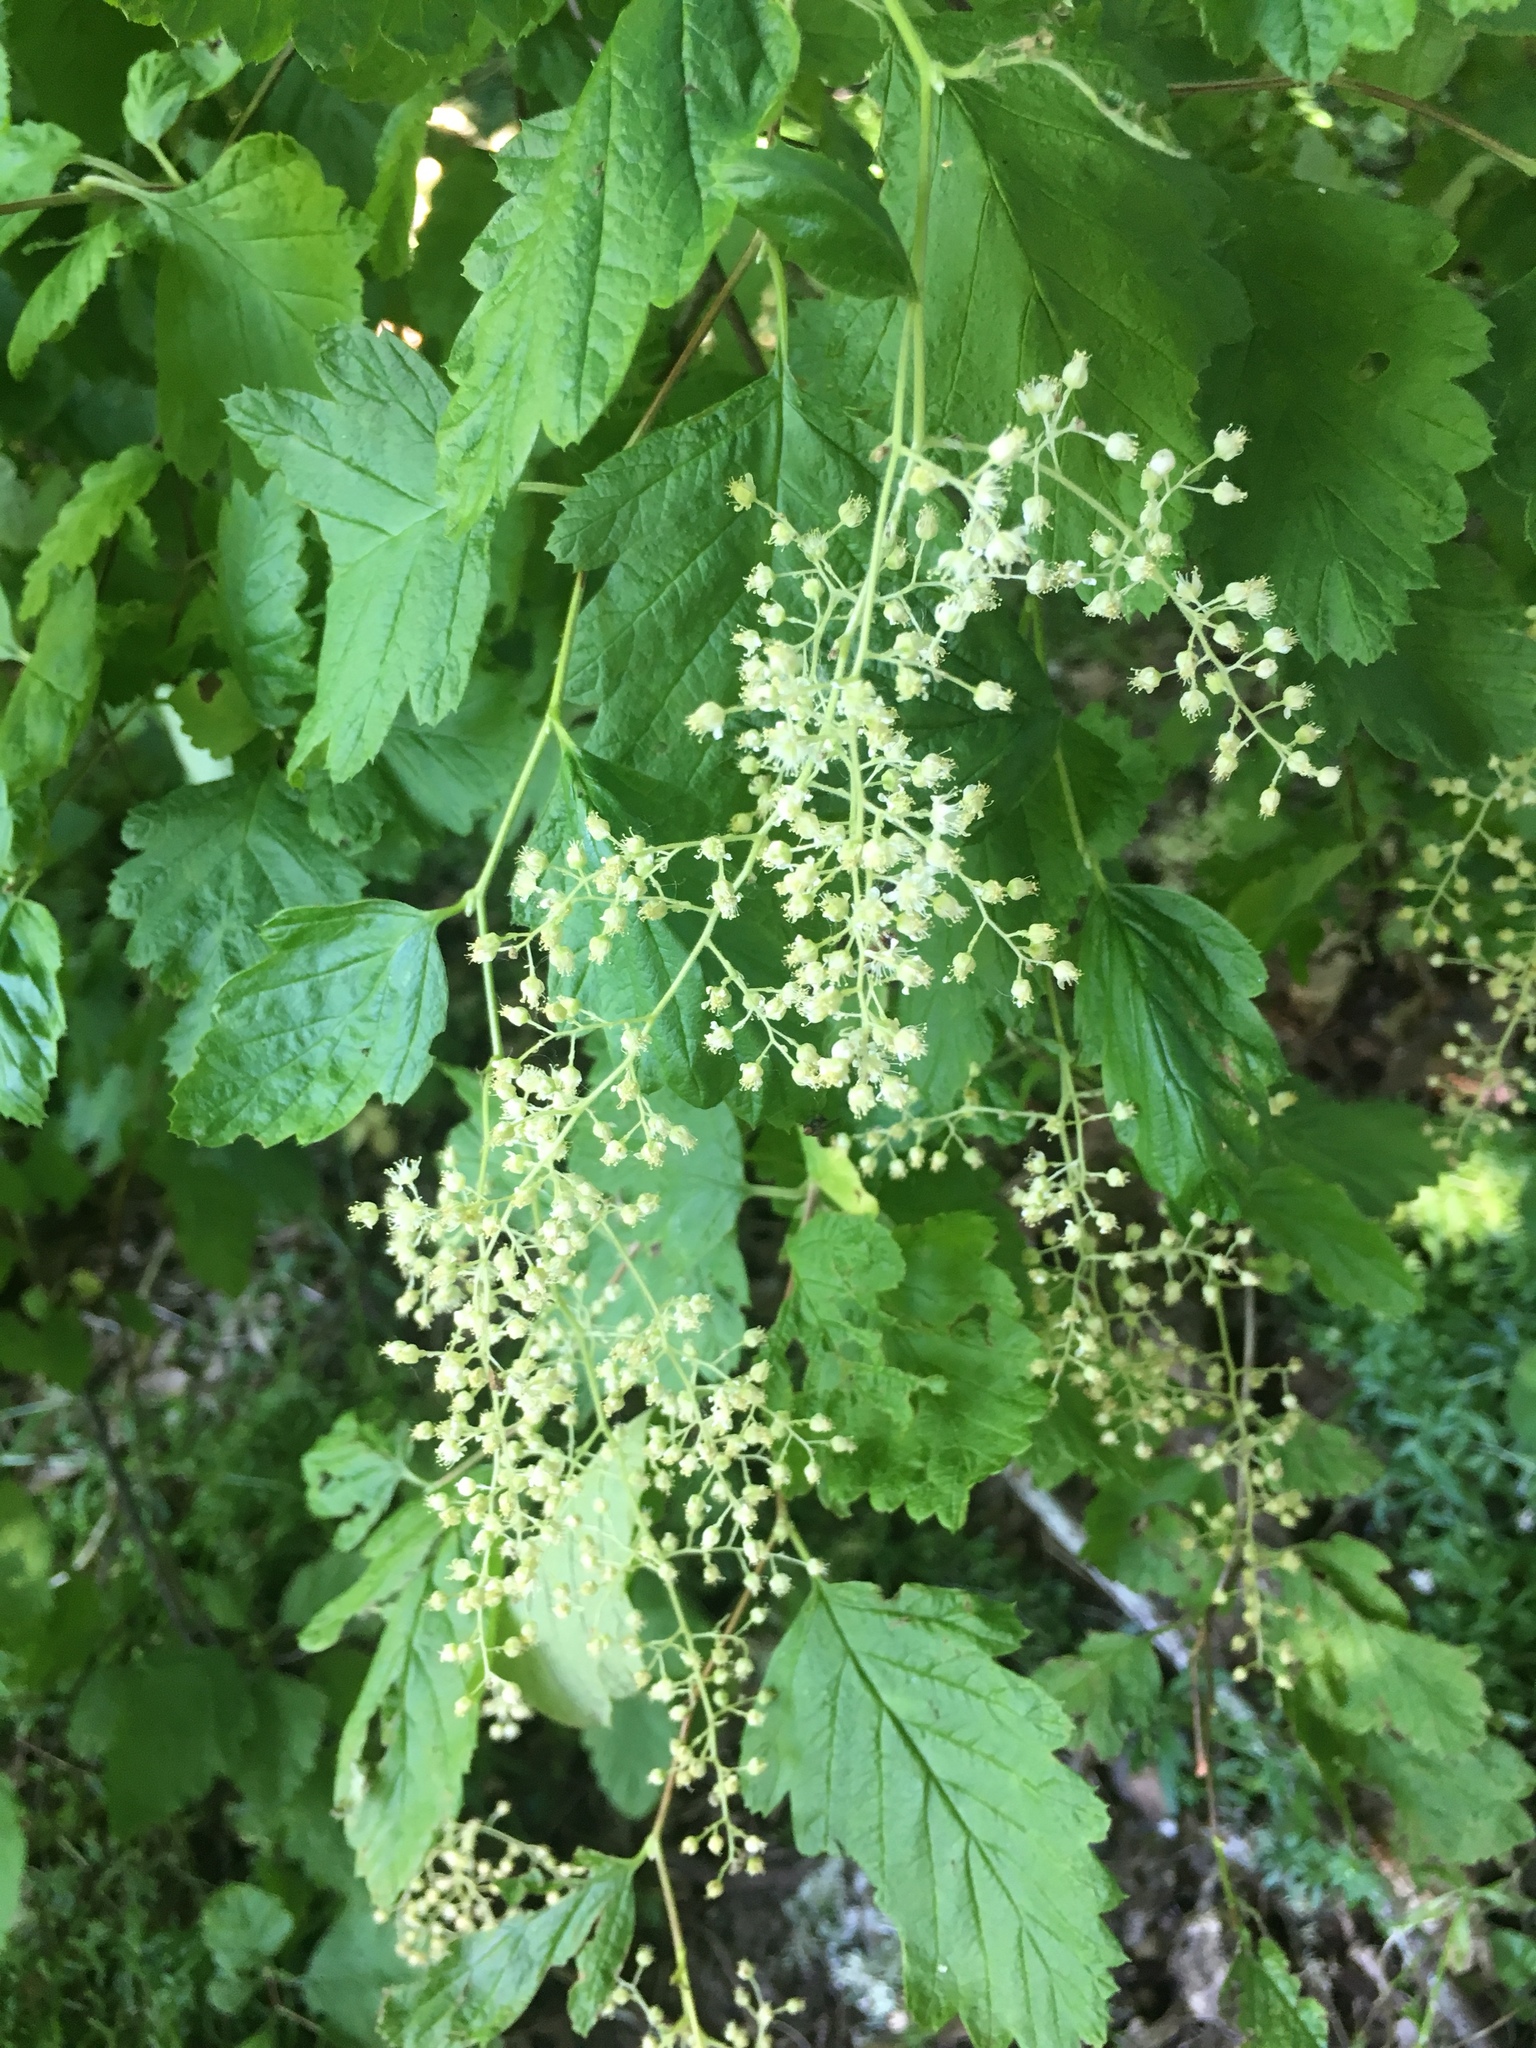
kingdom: Plantae
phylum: Tracheophyta
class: Magnoliopsida
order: Rosales
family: Rosaceae
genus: Holodiscus
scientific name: Holodiscus discolor
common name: Oceanspray
